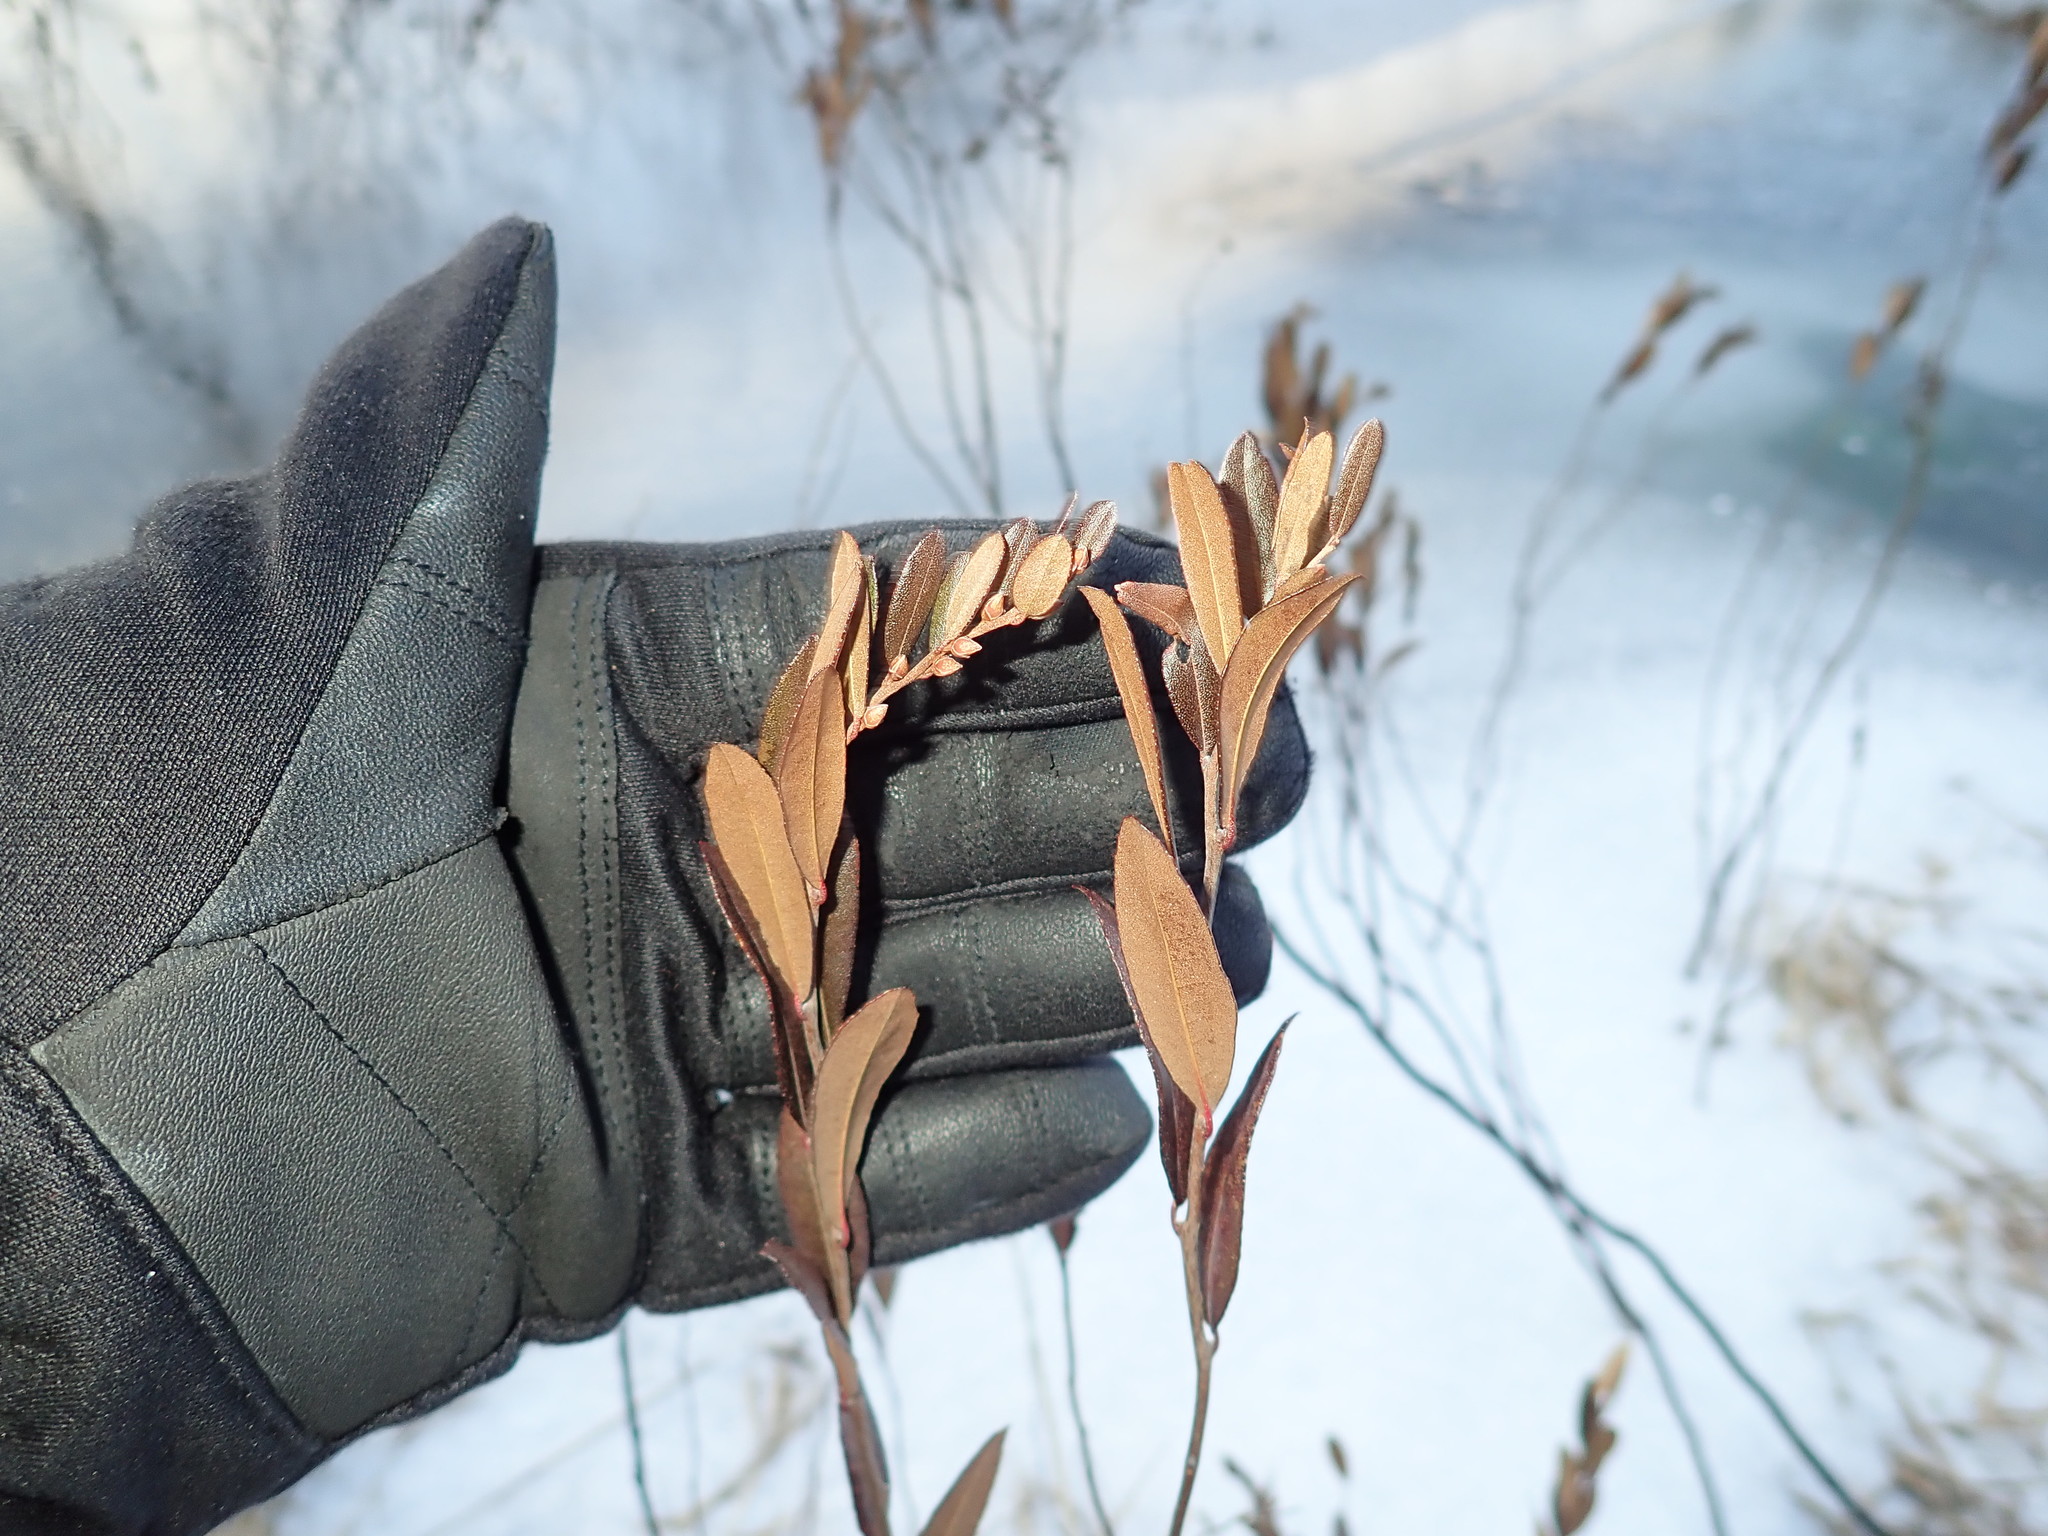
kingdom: Plantae
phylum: Tracheophyta
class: Magnoliopsida
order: Ericales
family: Ericaceae
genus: Chamaedaphne
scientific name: Chamaedaphne calyculata
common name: Leatherleaf
